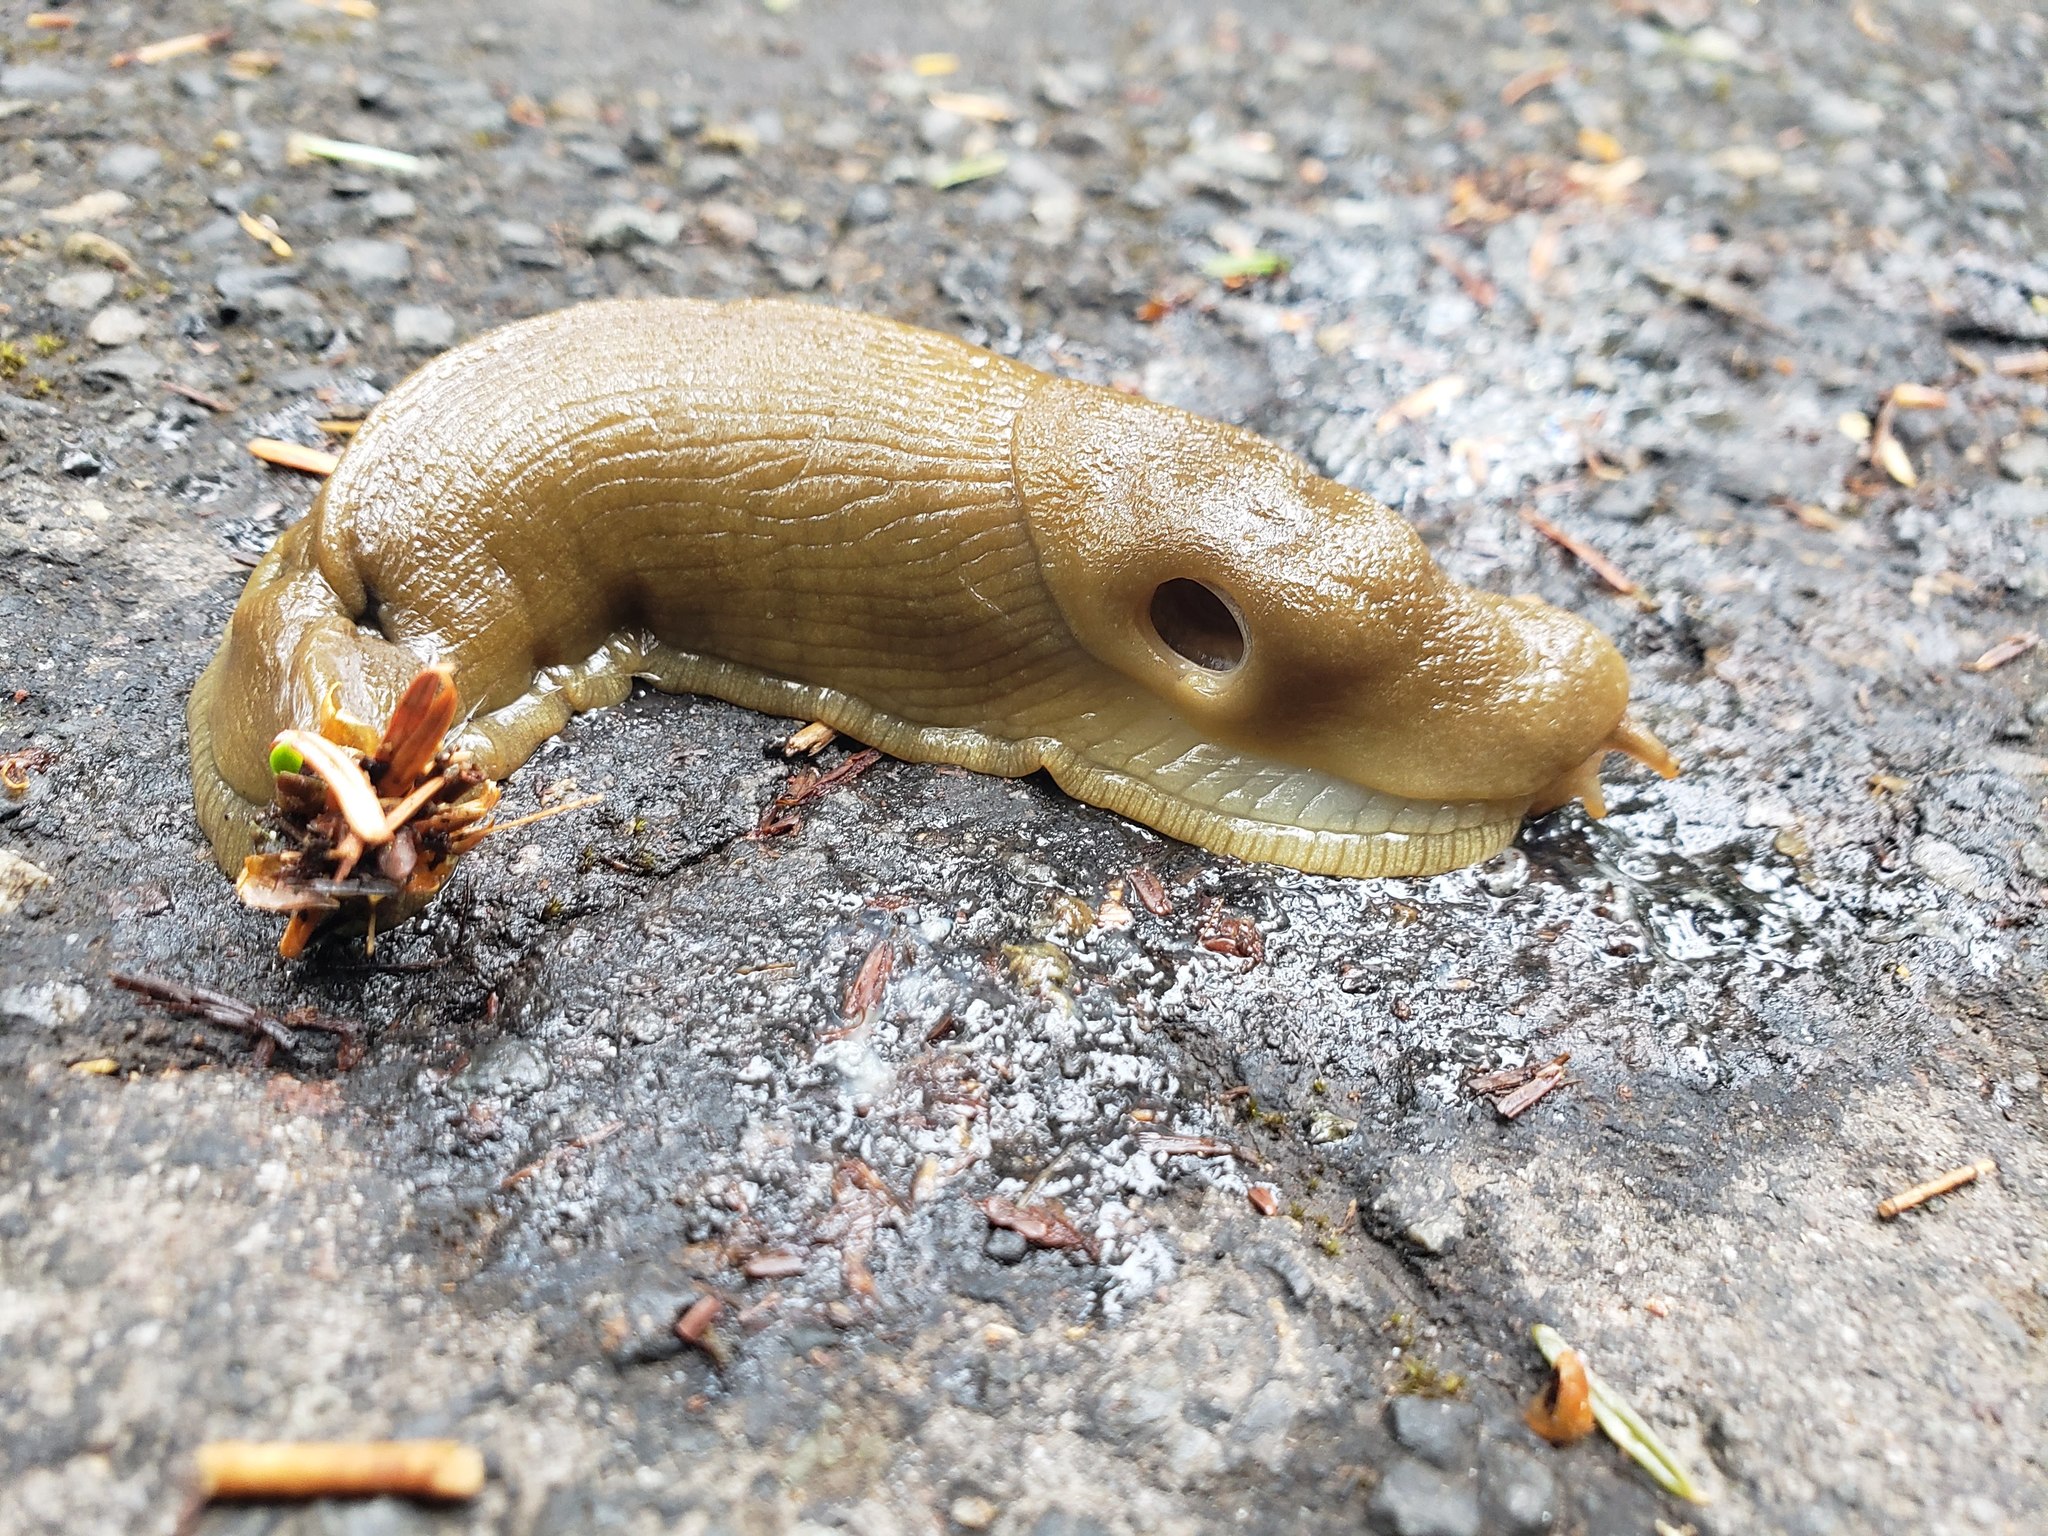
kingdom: Animalia
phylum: Mollusca
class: Gastropoda
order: Stylommatophora
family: Ariolimacidae
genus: Ariolimax
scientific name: Ariolimax columbianus
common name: Pacific banana slug
